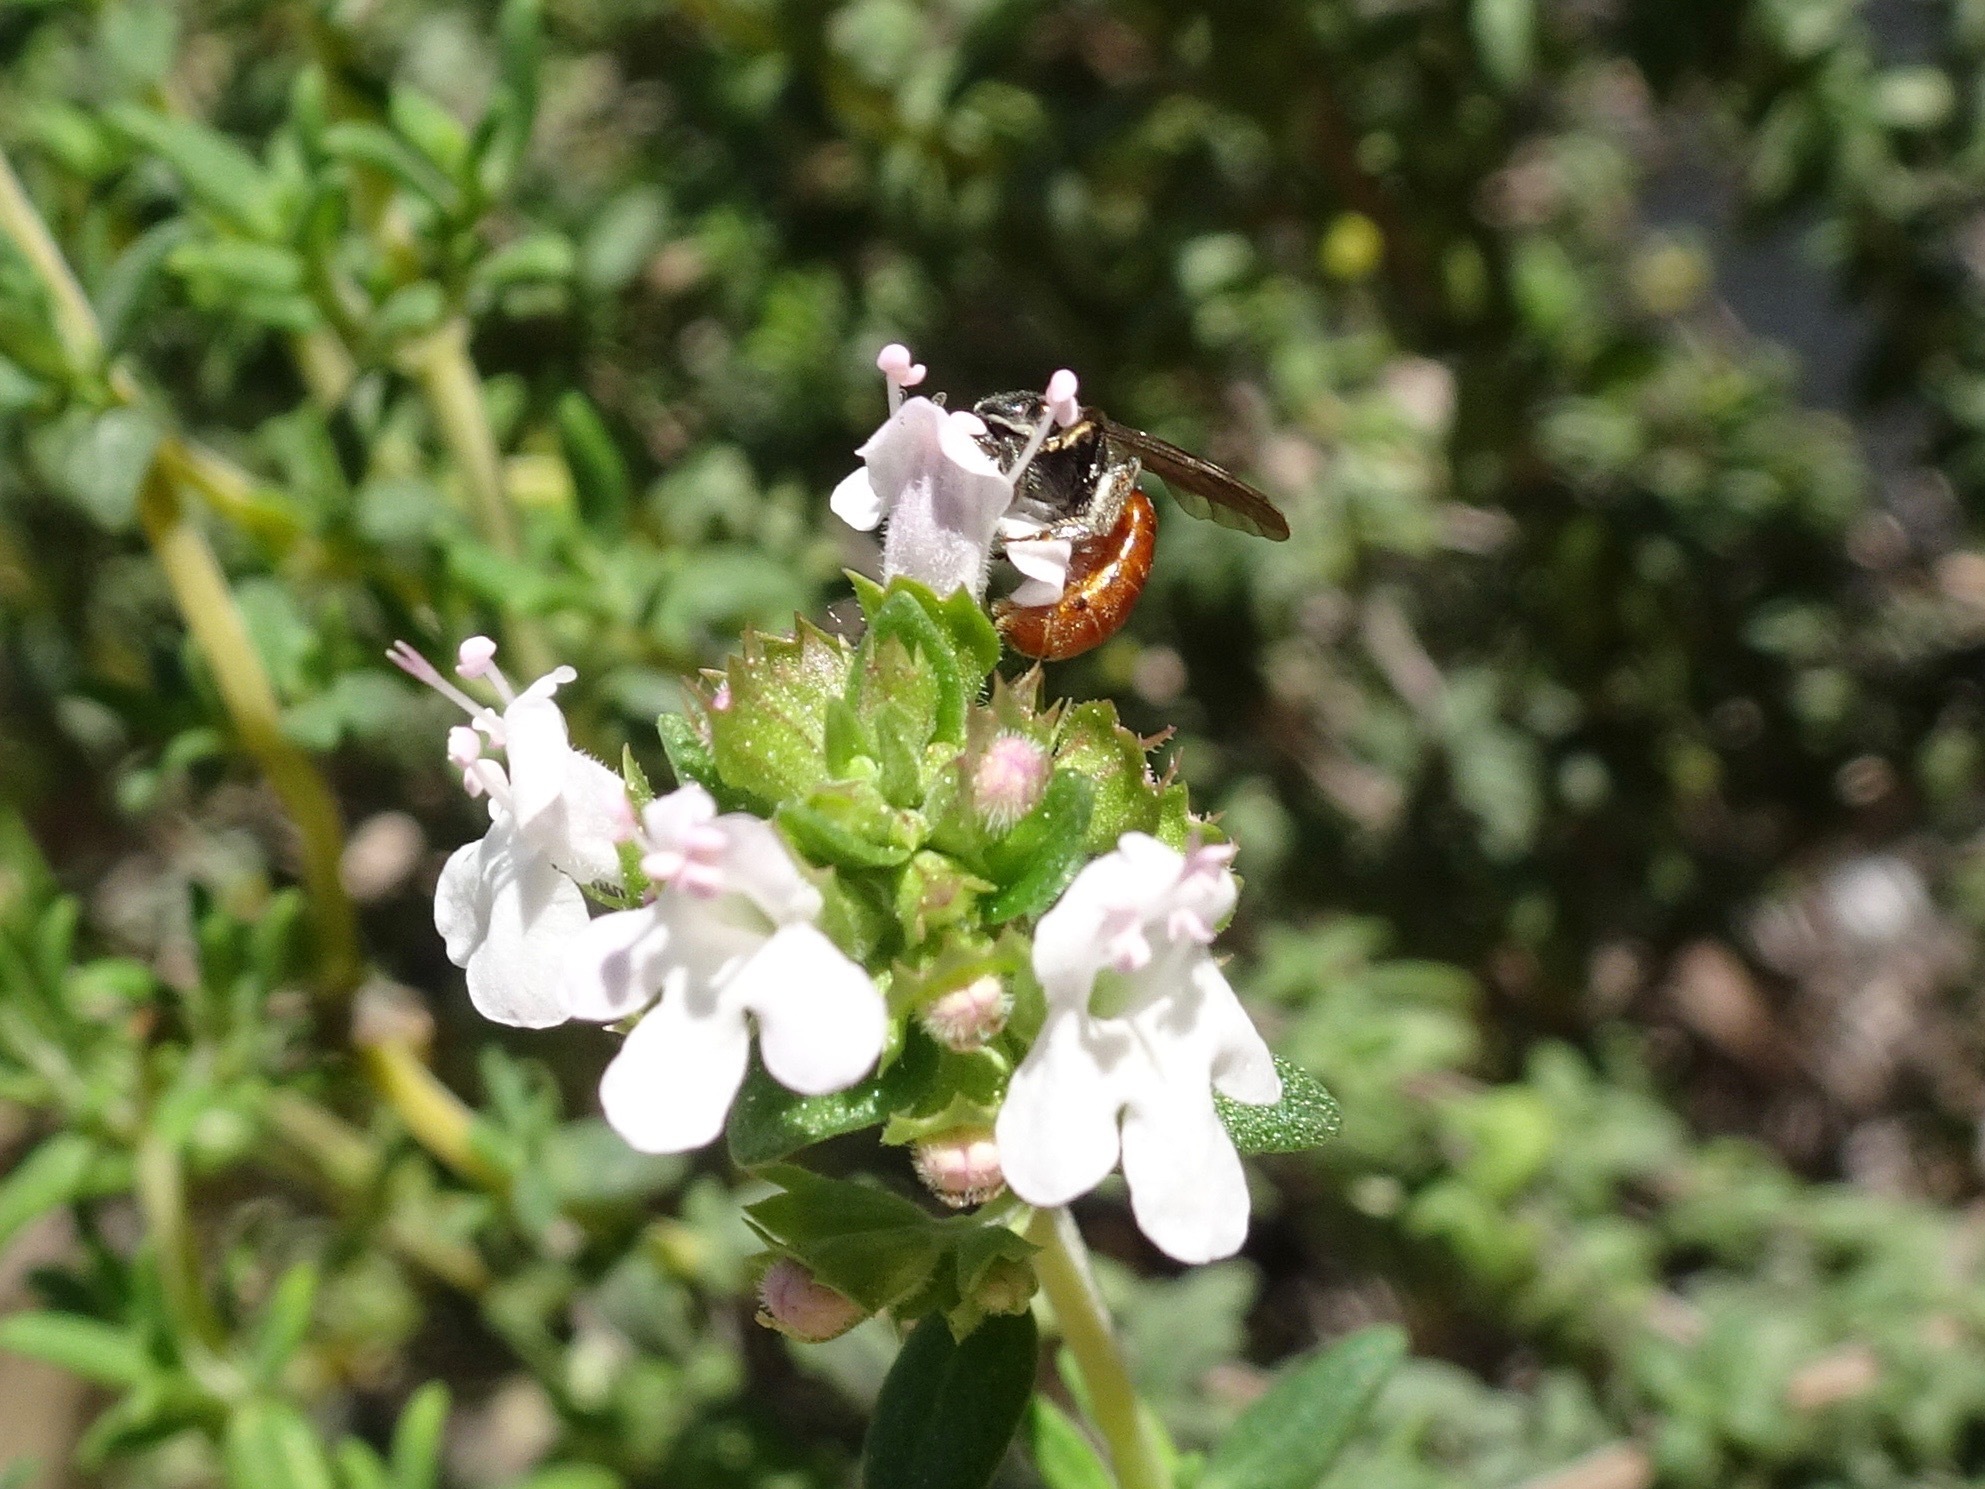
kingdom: Animalia
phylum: Arthropoda
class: Insecta
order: Hymenoptera
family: Halictidae
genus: Lasioglossum
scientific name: Lasioglossum ovaliceps
